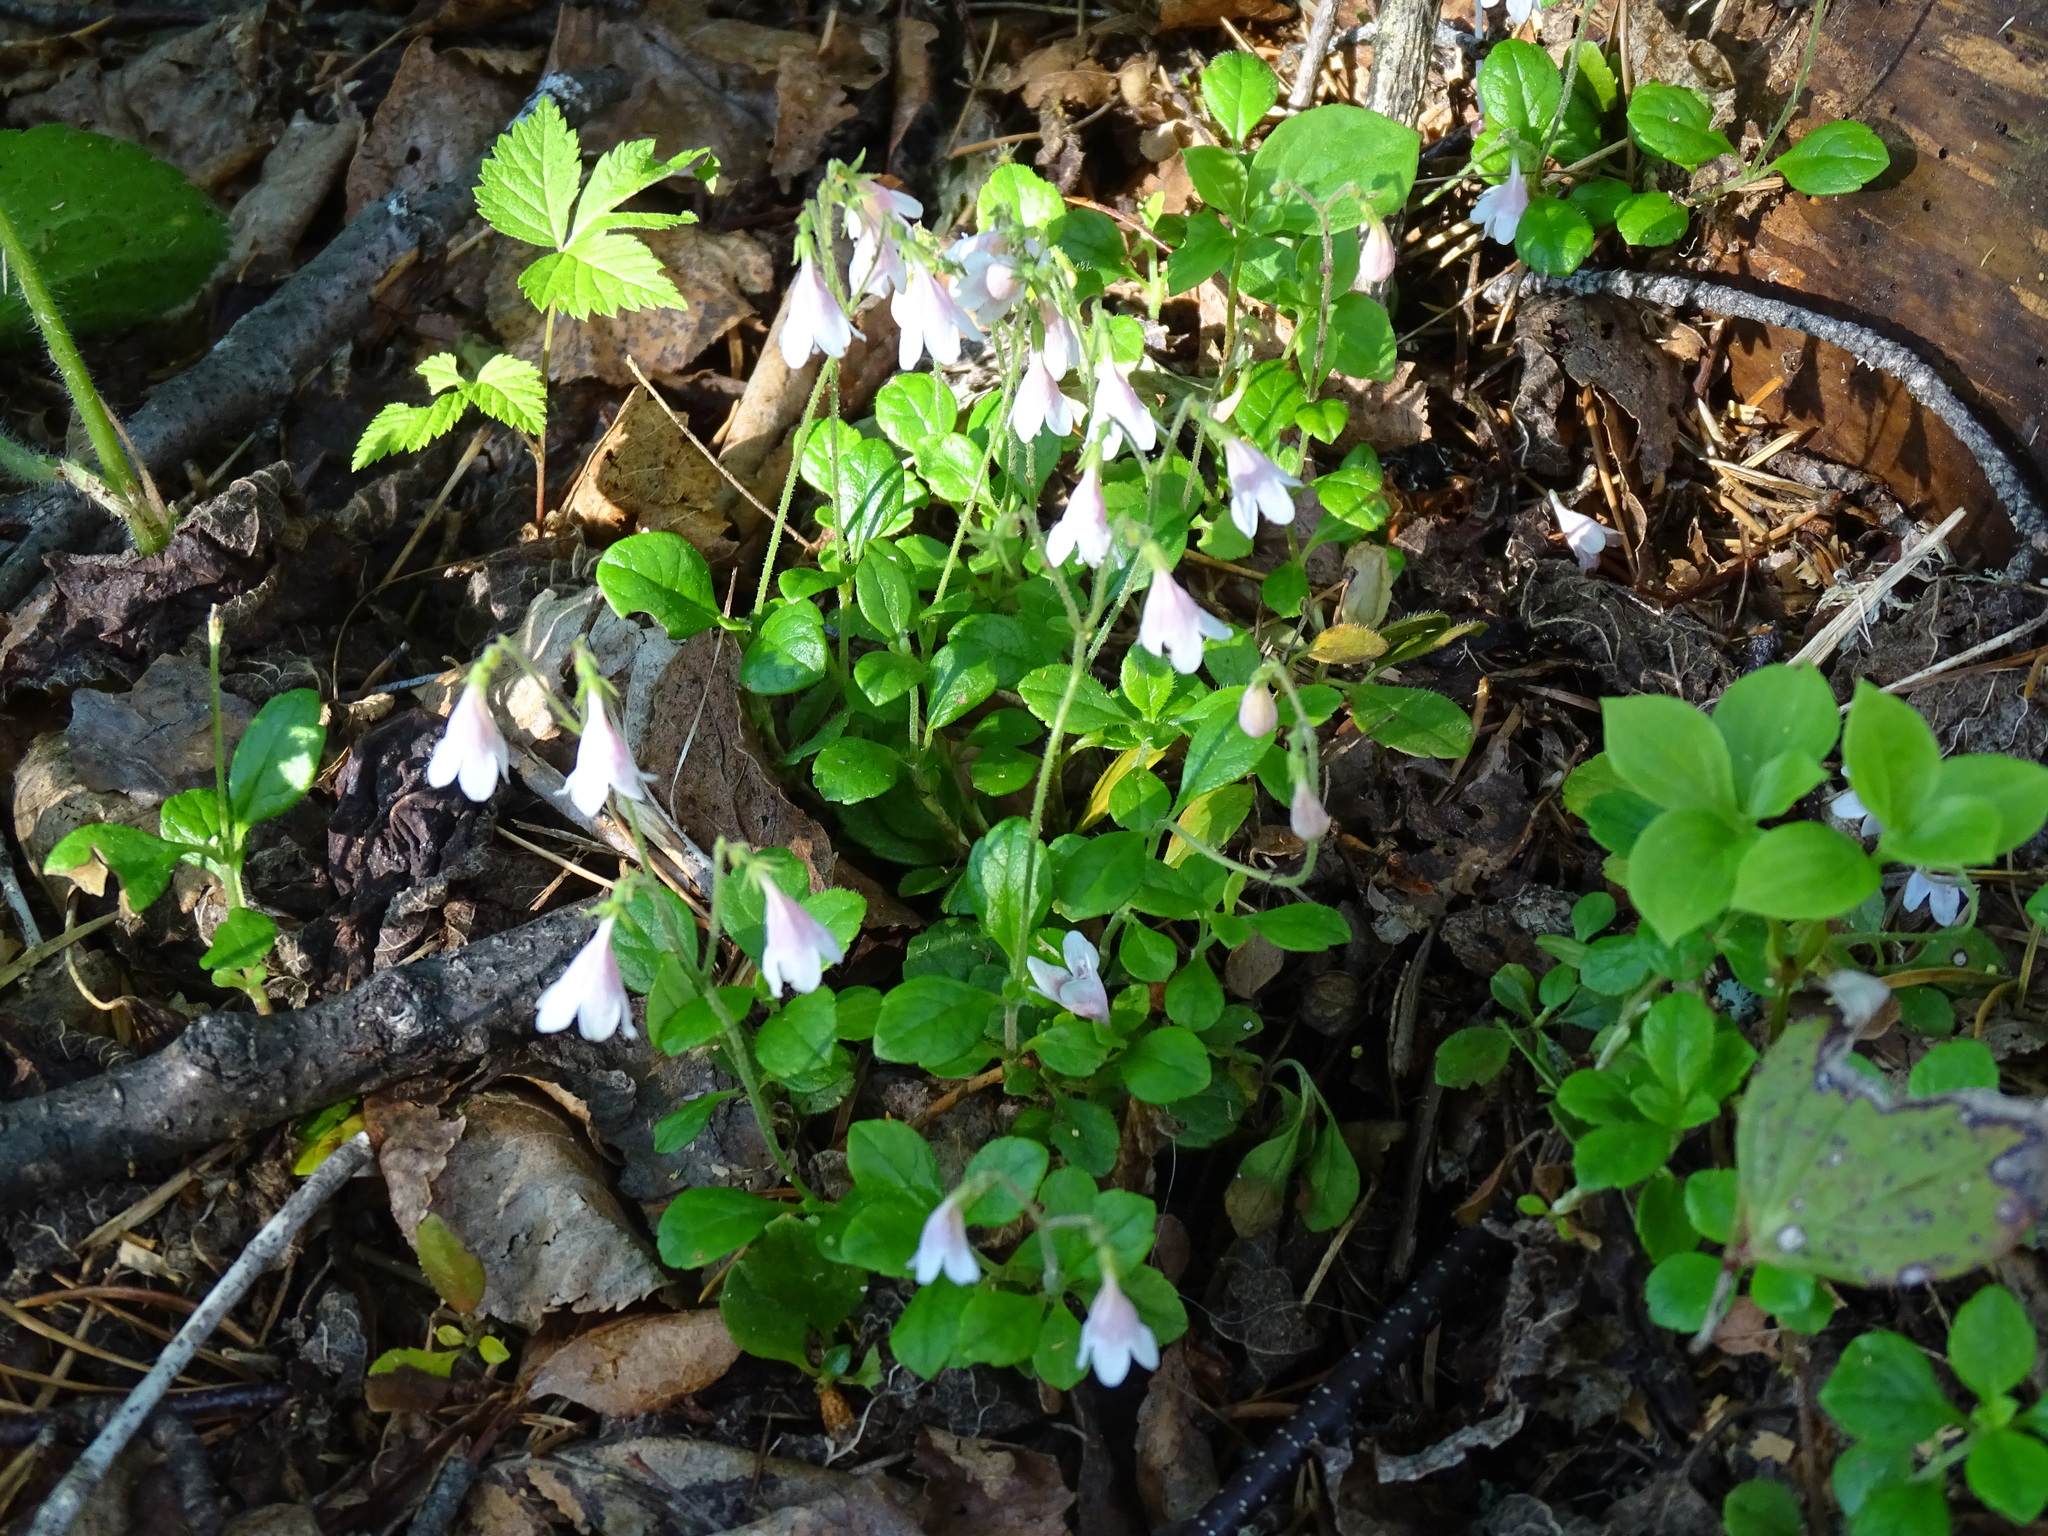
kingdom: Plantae
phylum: Tracheophyta
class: Magnoliopsida
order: Dipsacales
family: Caprifoliaceae
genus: Linnaea
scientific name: Linnaea borealis
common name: Twinflower
